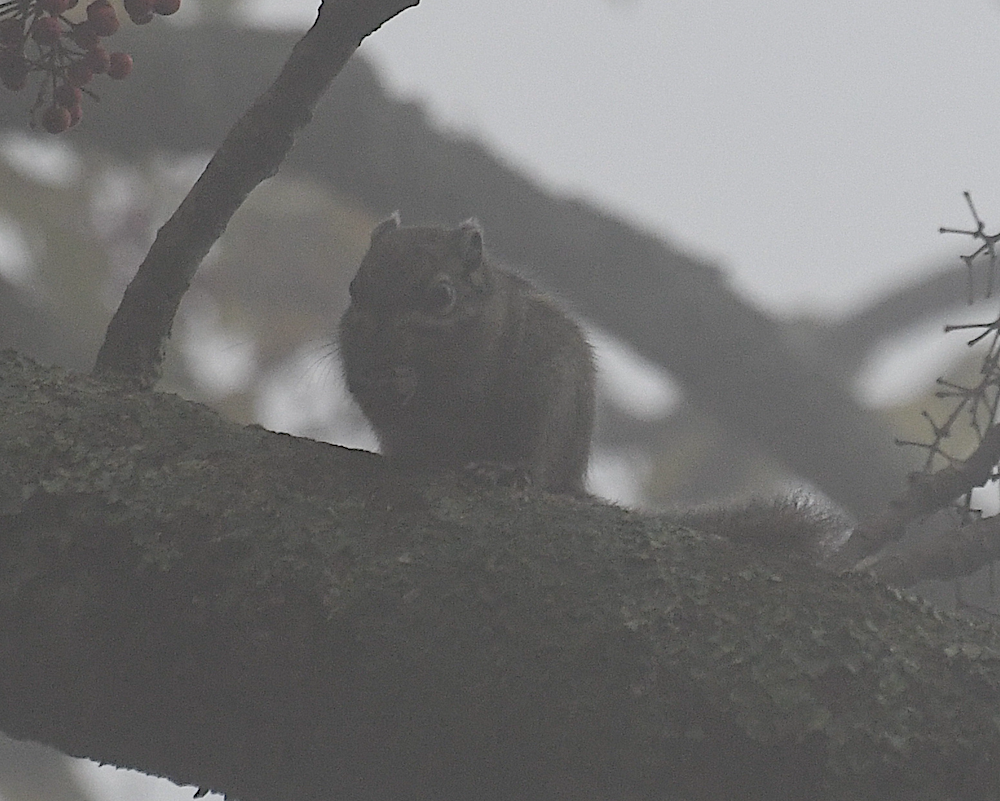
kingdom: Animalia
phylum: Chordata
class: Mammalia
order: Rodentia
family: Sciuridae
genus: Tamiops
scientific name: Tamiops maritimus
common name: Maritime striped squirrel
